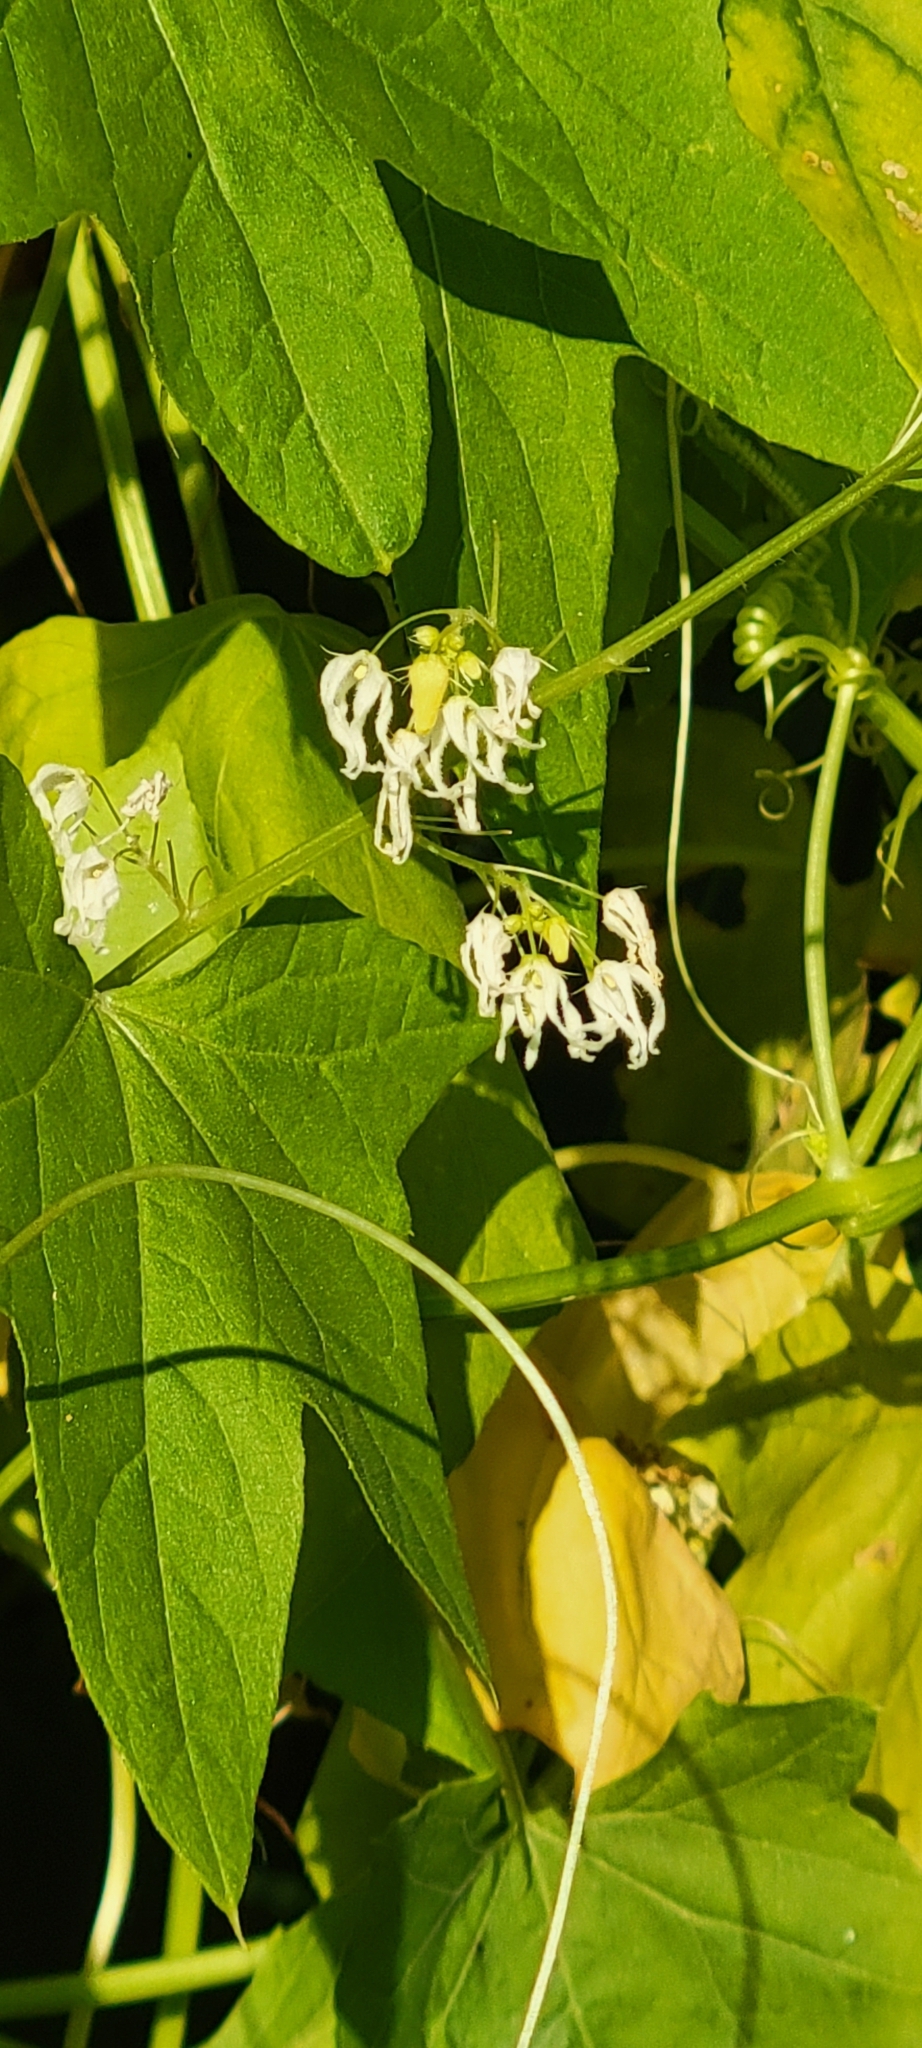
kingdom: Plantae
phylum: Tracheophyta
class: Magnoliopsida
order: Cucurbitales
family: Cucurbitaceae
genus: Echinocystis
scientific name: Echinocystis lobata
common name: Wild cucumber
